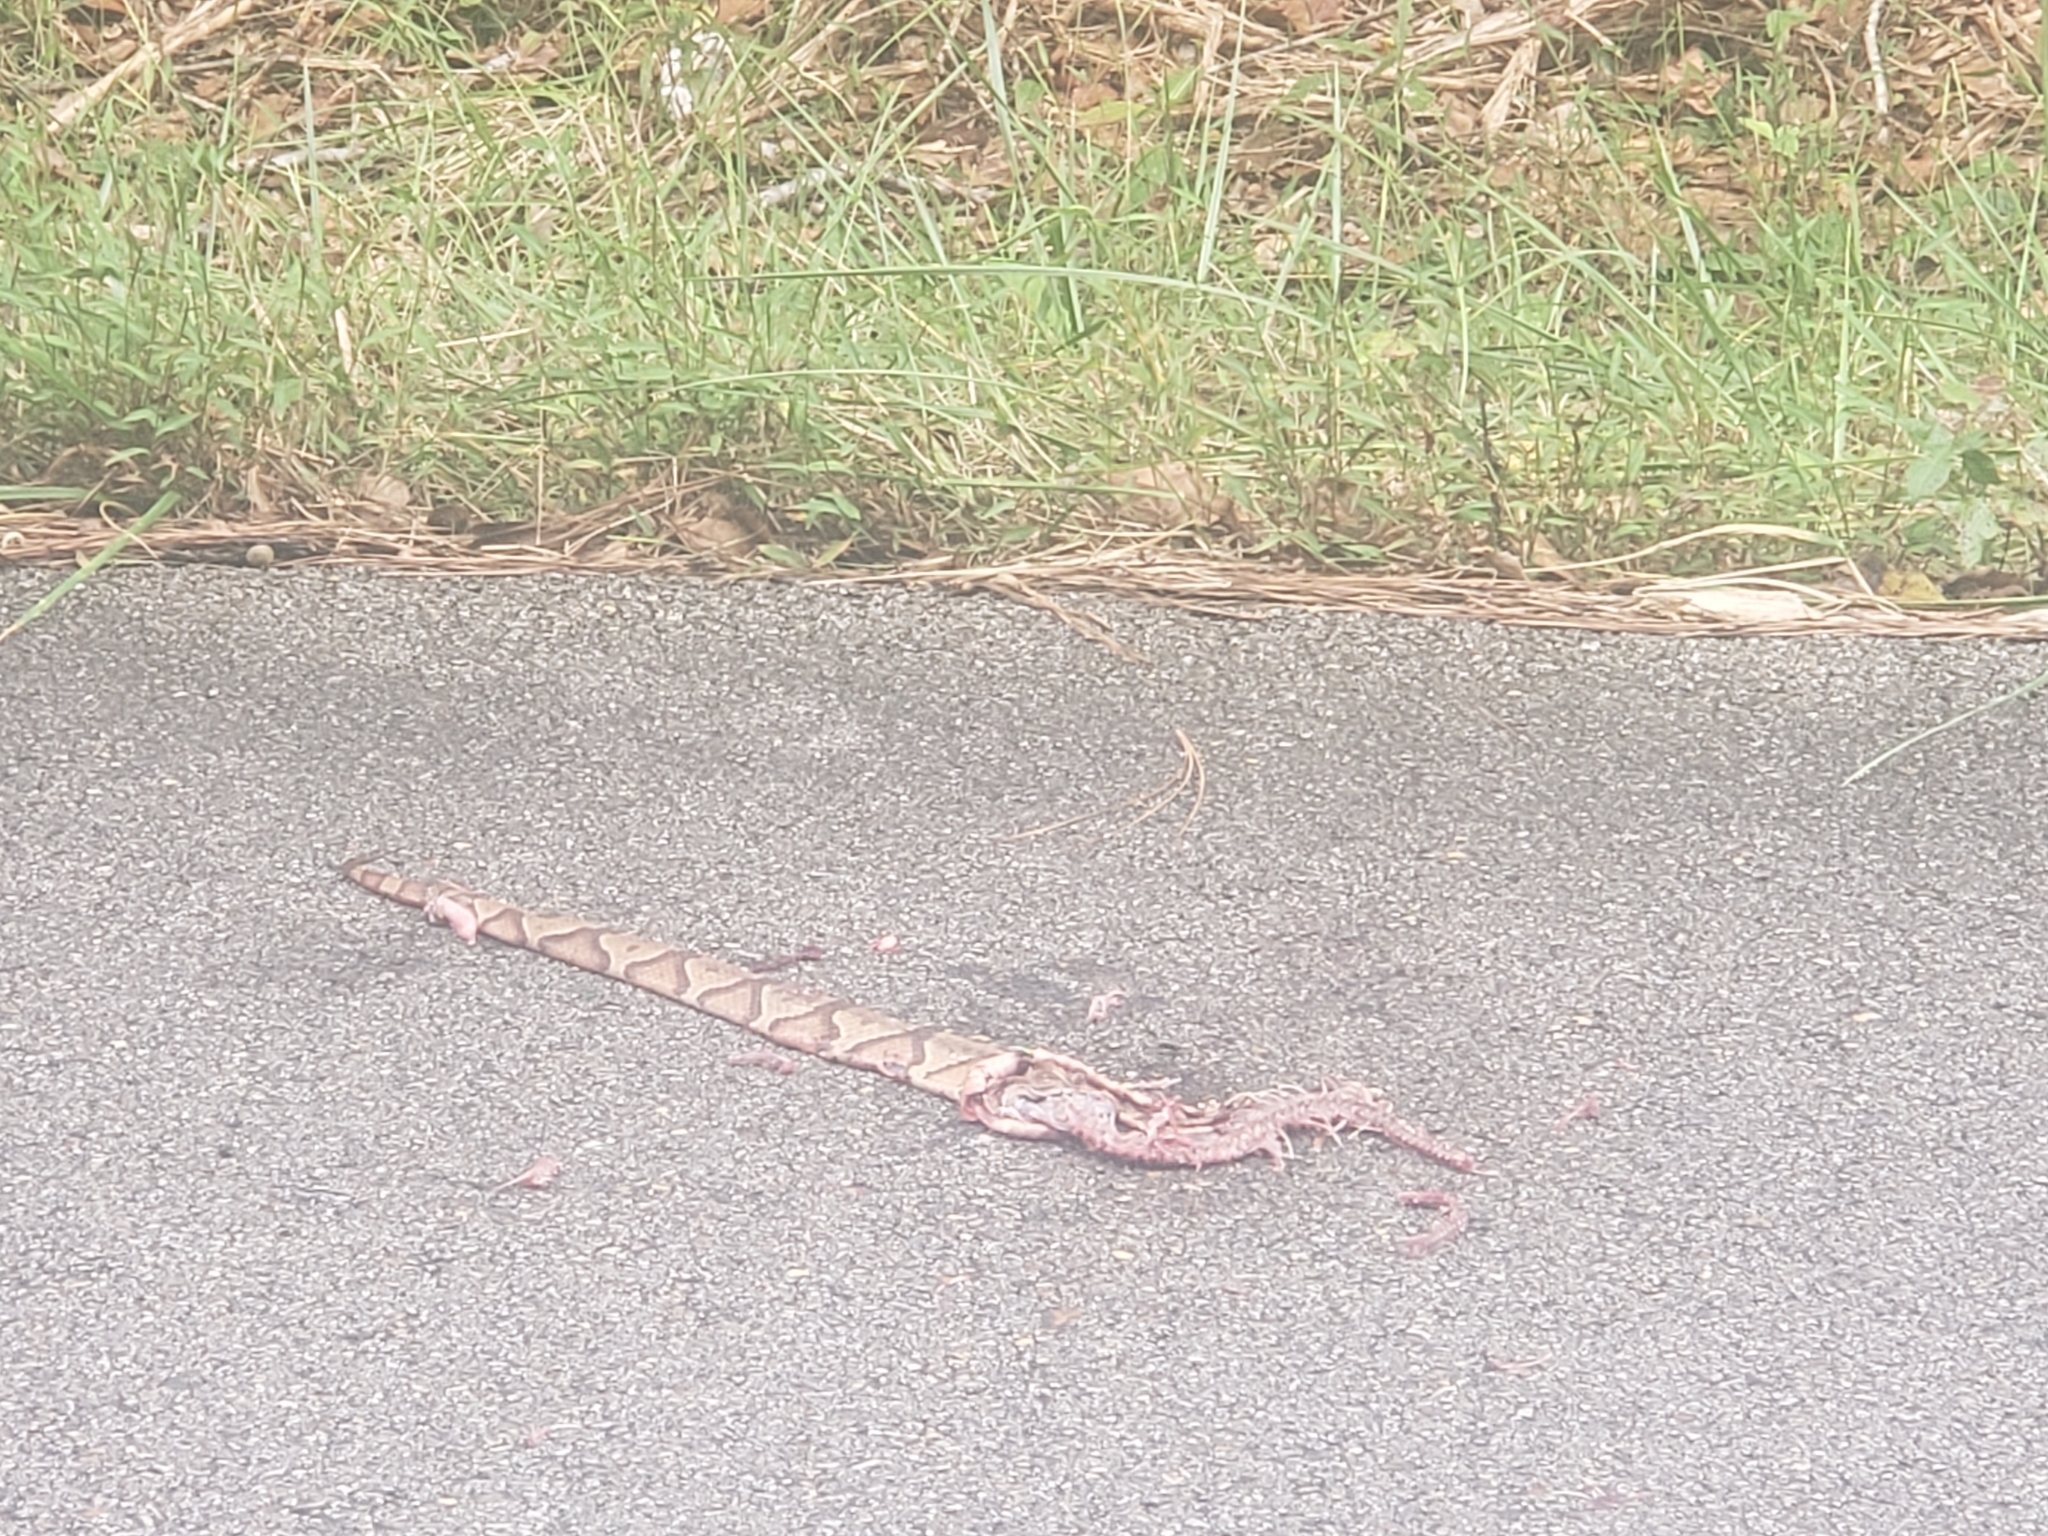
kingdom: Animalia
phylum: Chordata
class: Squamata
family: Viperidae
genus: Agkistrodon
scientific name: Agkistrodon contortrix
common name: Northern copperhead
